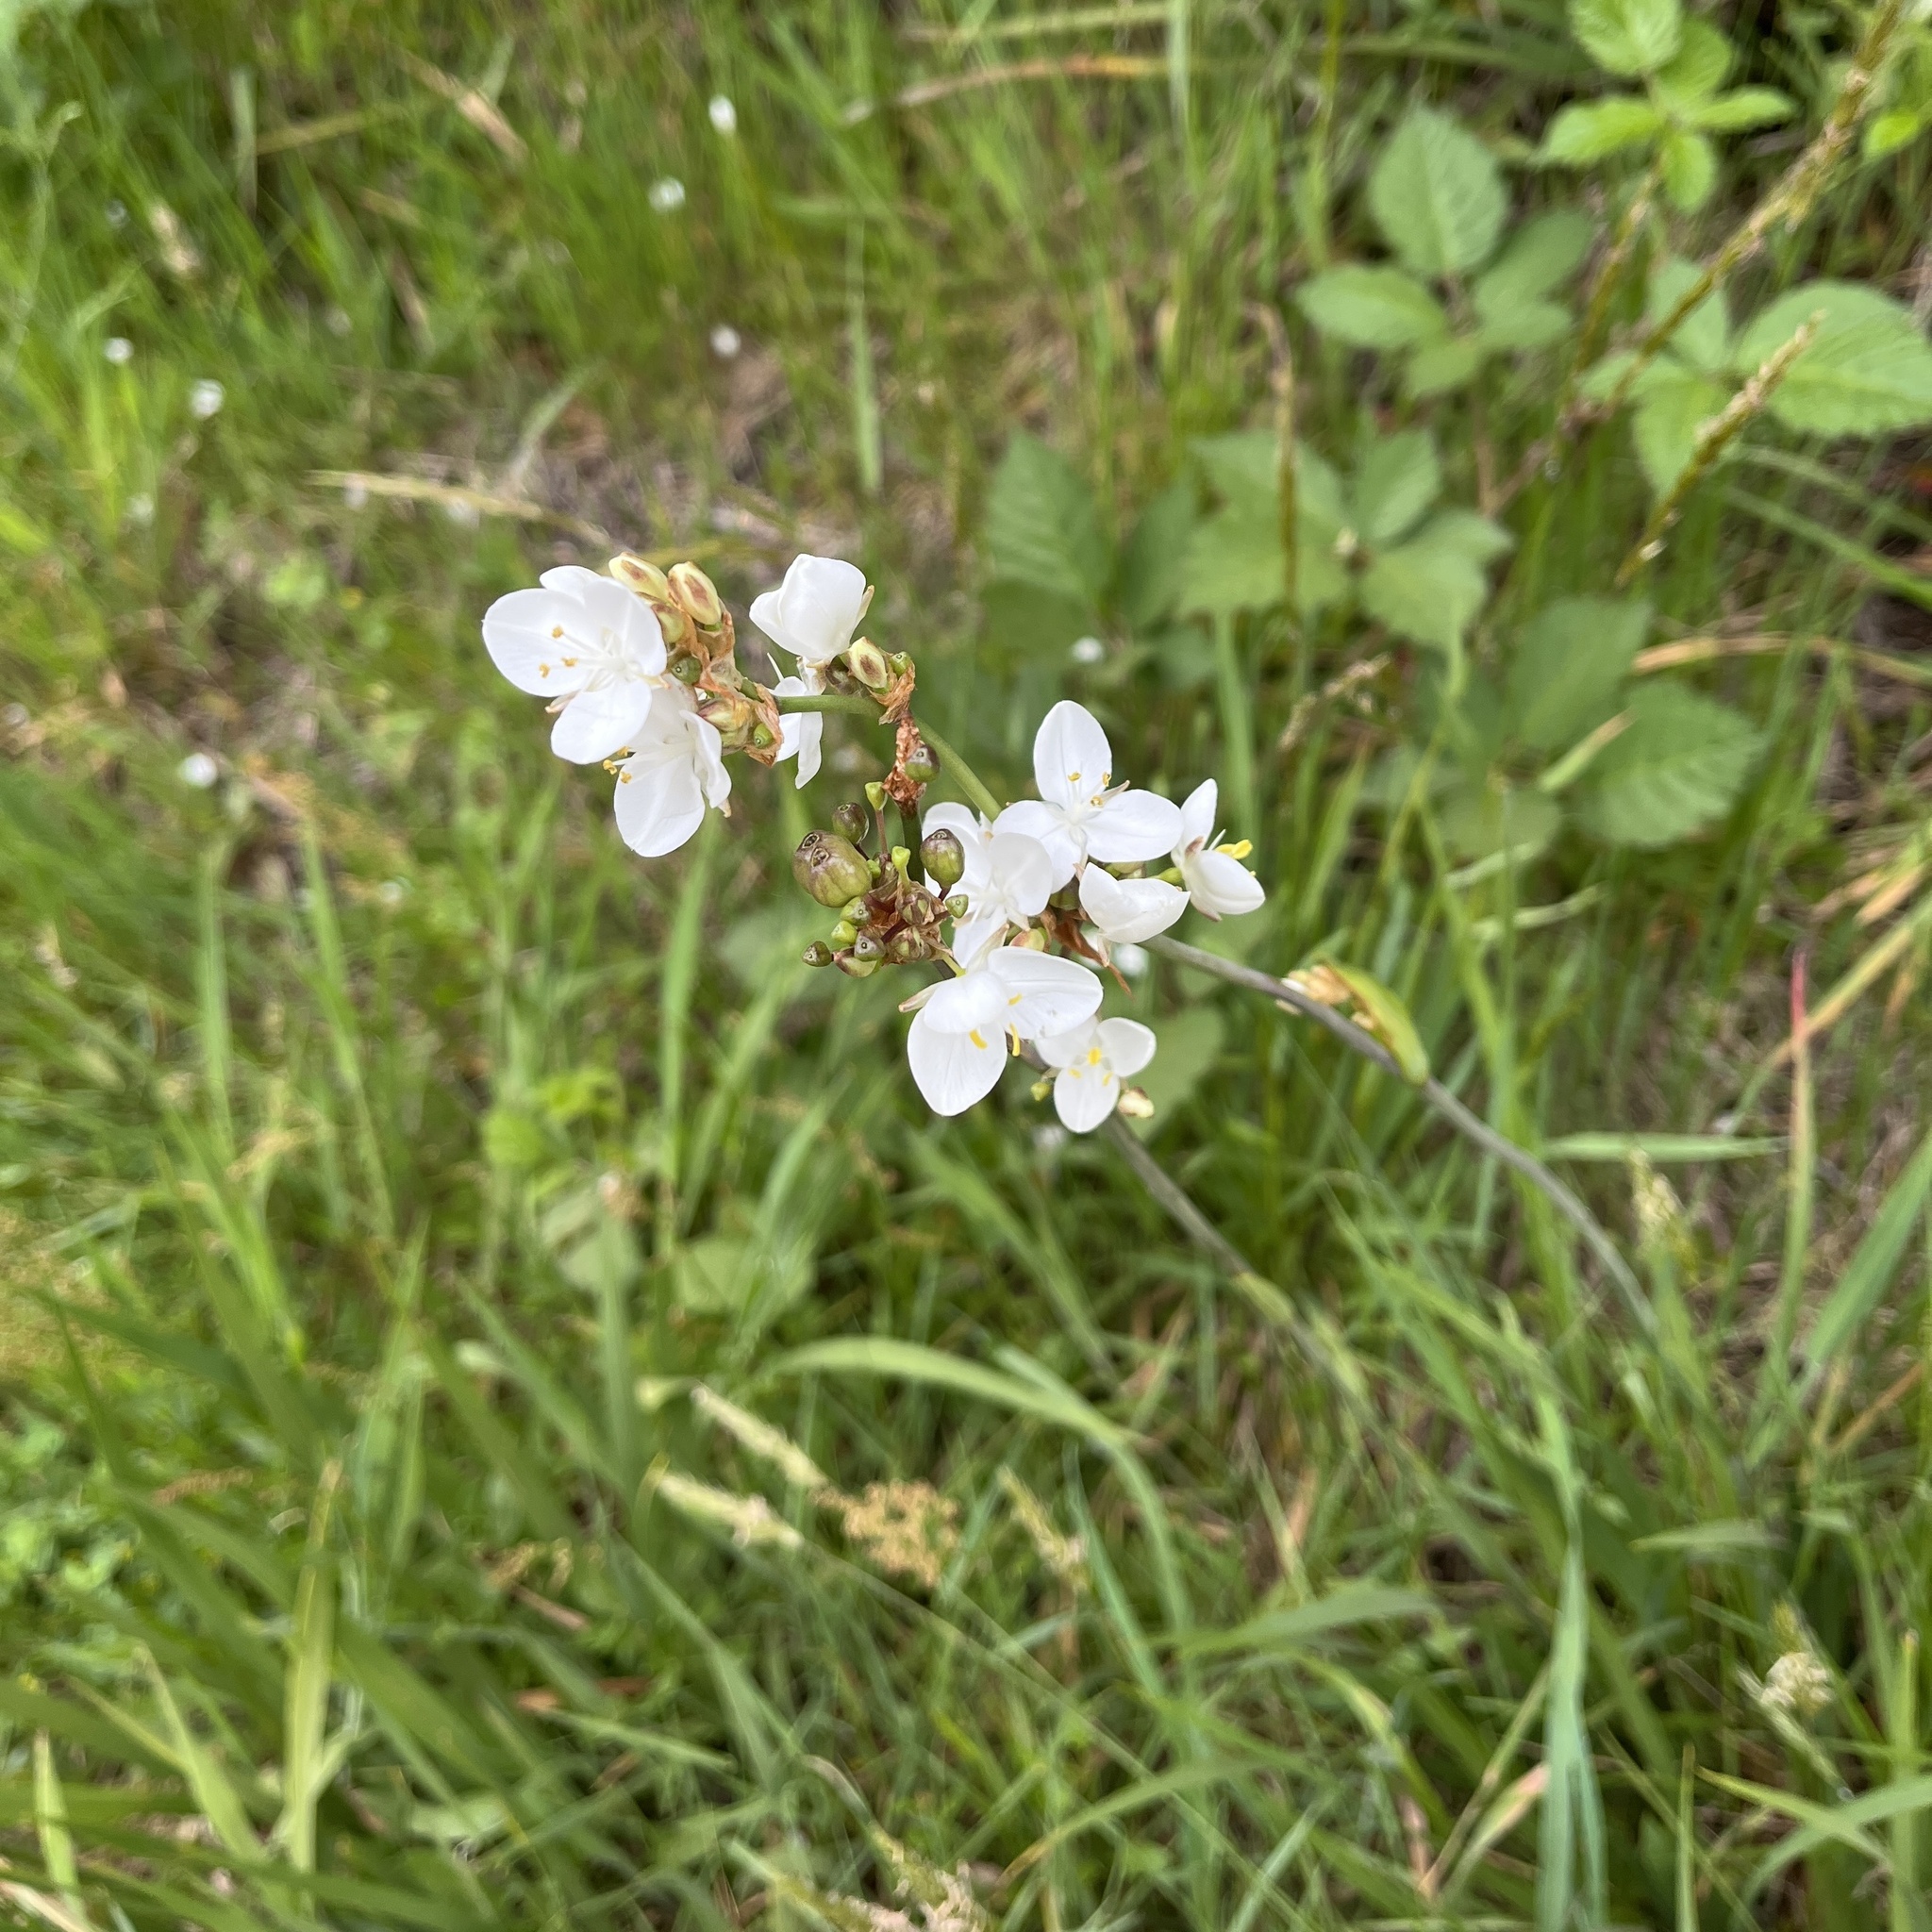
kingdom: Plantae
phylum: Tracheophyta
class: Liliopsida
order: Asparagales
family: Iridaceae
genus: Libertia
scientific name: Libertia chilensis
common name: Satin flower
